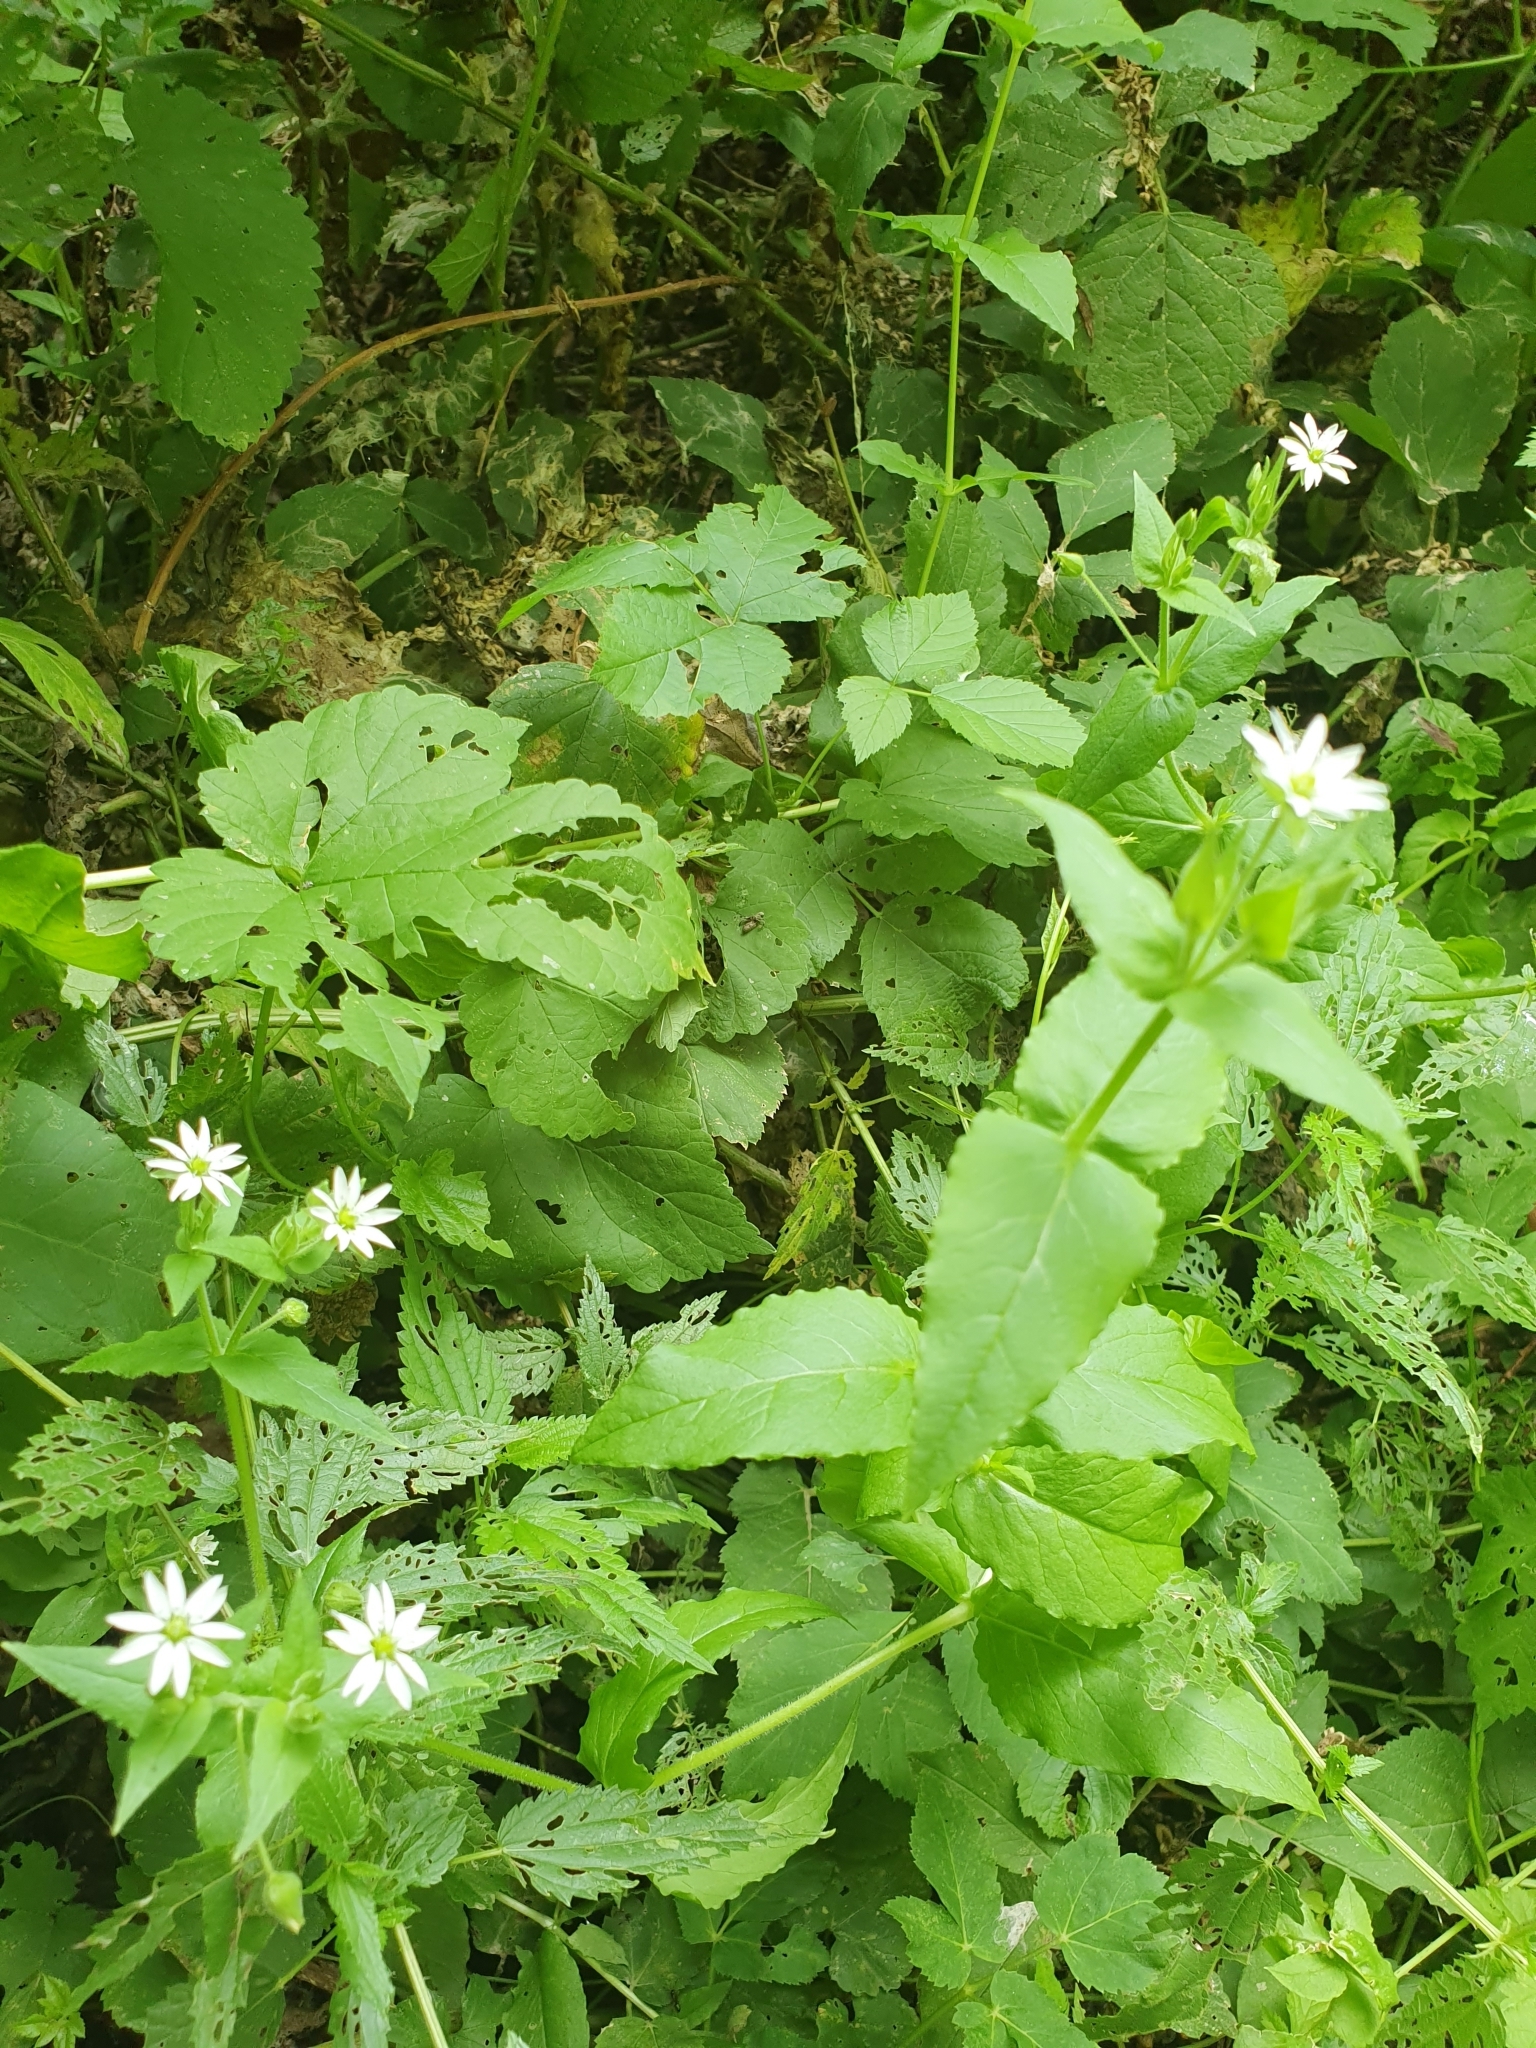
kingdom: Plantae
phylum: Tracheophyta
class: Magnoliopsida
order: Caryophyllales
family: Caryophyllaceae
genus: Stellaria
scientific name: Stellaria aquatica
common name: Water chickweed
